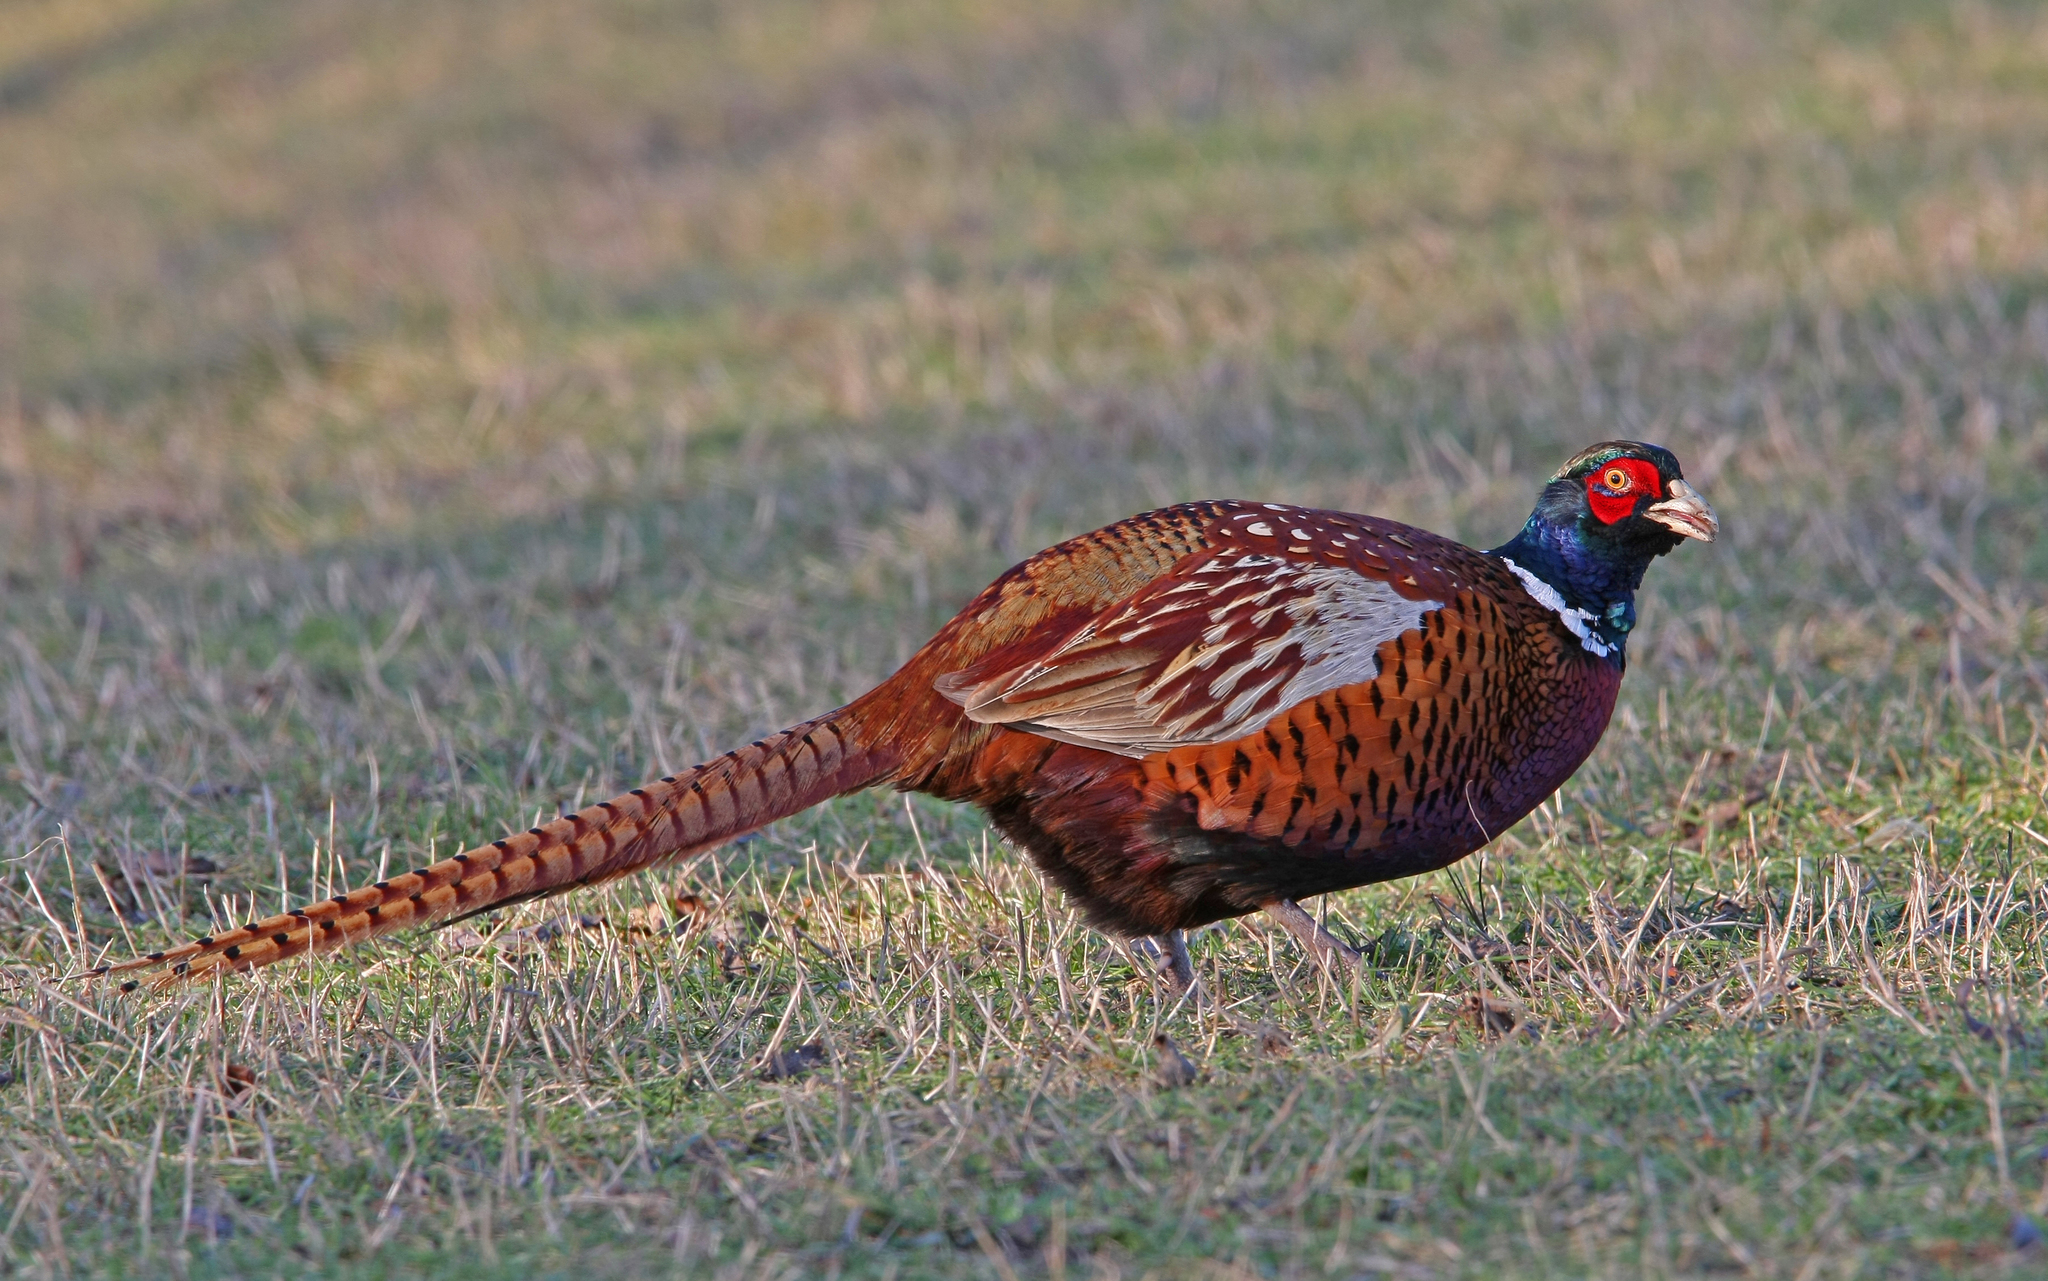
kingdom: Animalia
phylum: Chordata
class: Aves
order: Galliformes
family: Phasianidae
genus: Phasianus
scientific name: Phasianus colchicus
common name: Common pheasant
